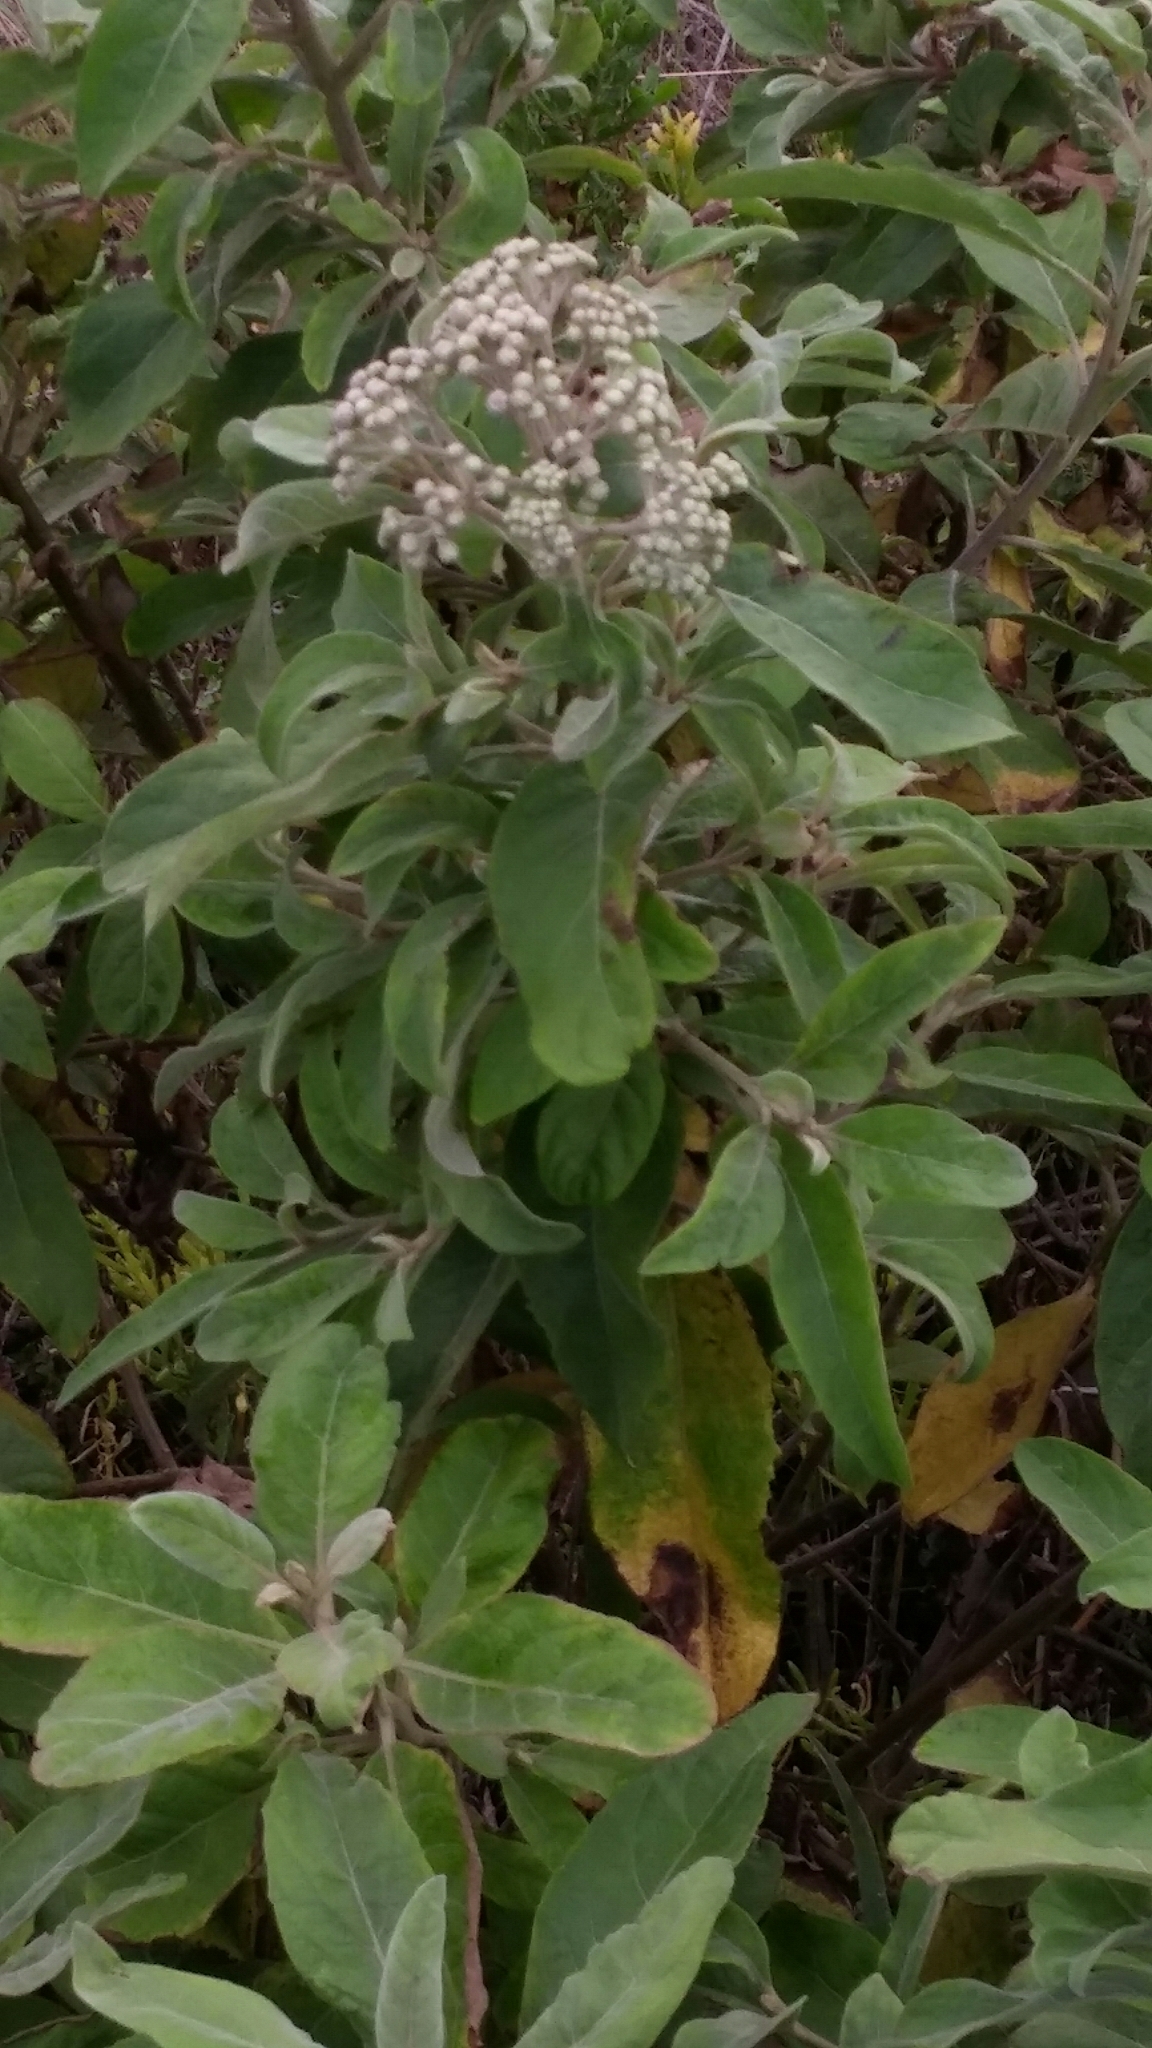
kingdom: Plantae
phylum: Tracheophyta
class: Magnoliopsida
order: Asterales
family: Asteraceae
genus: Pluchea
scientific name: Pluchea carolinensis
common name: Marsh fleabane
